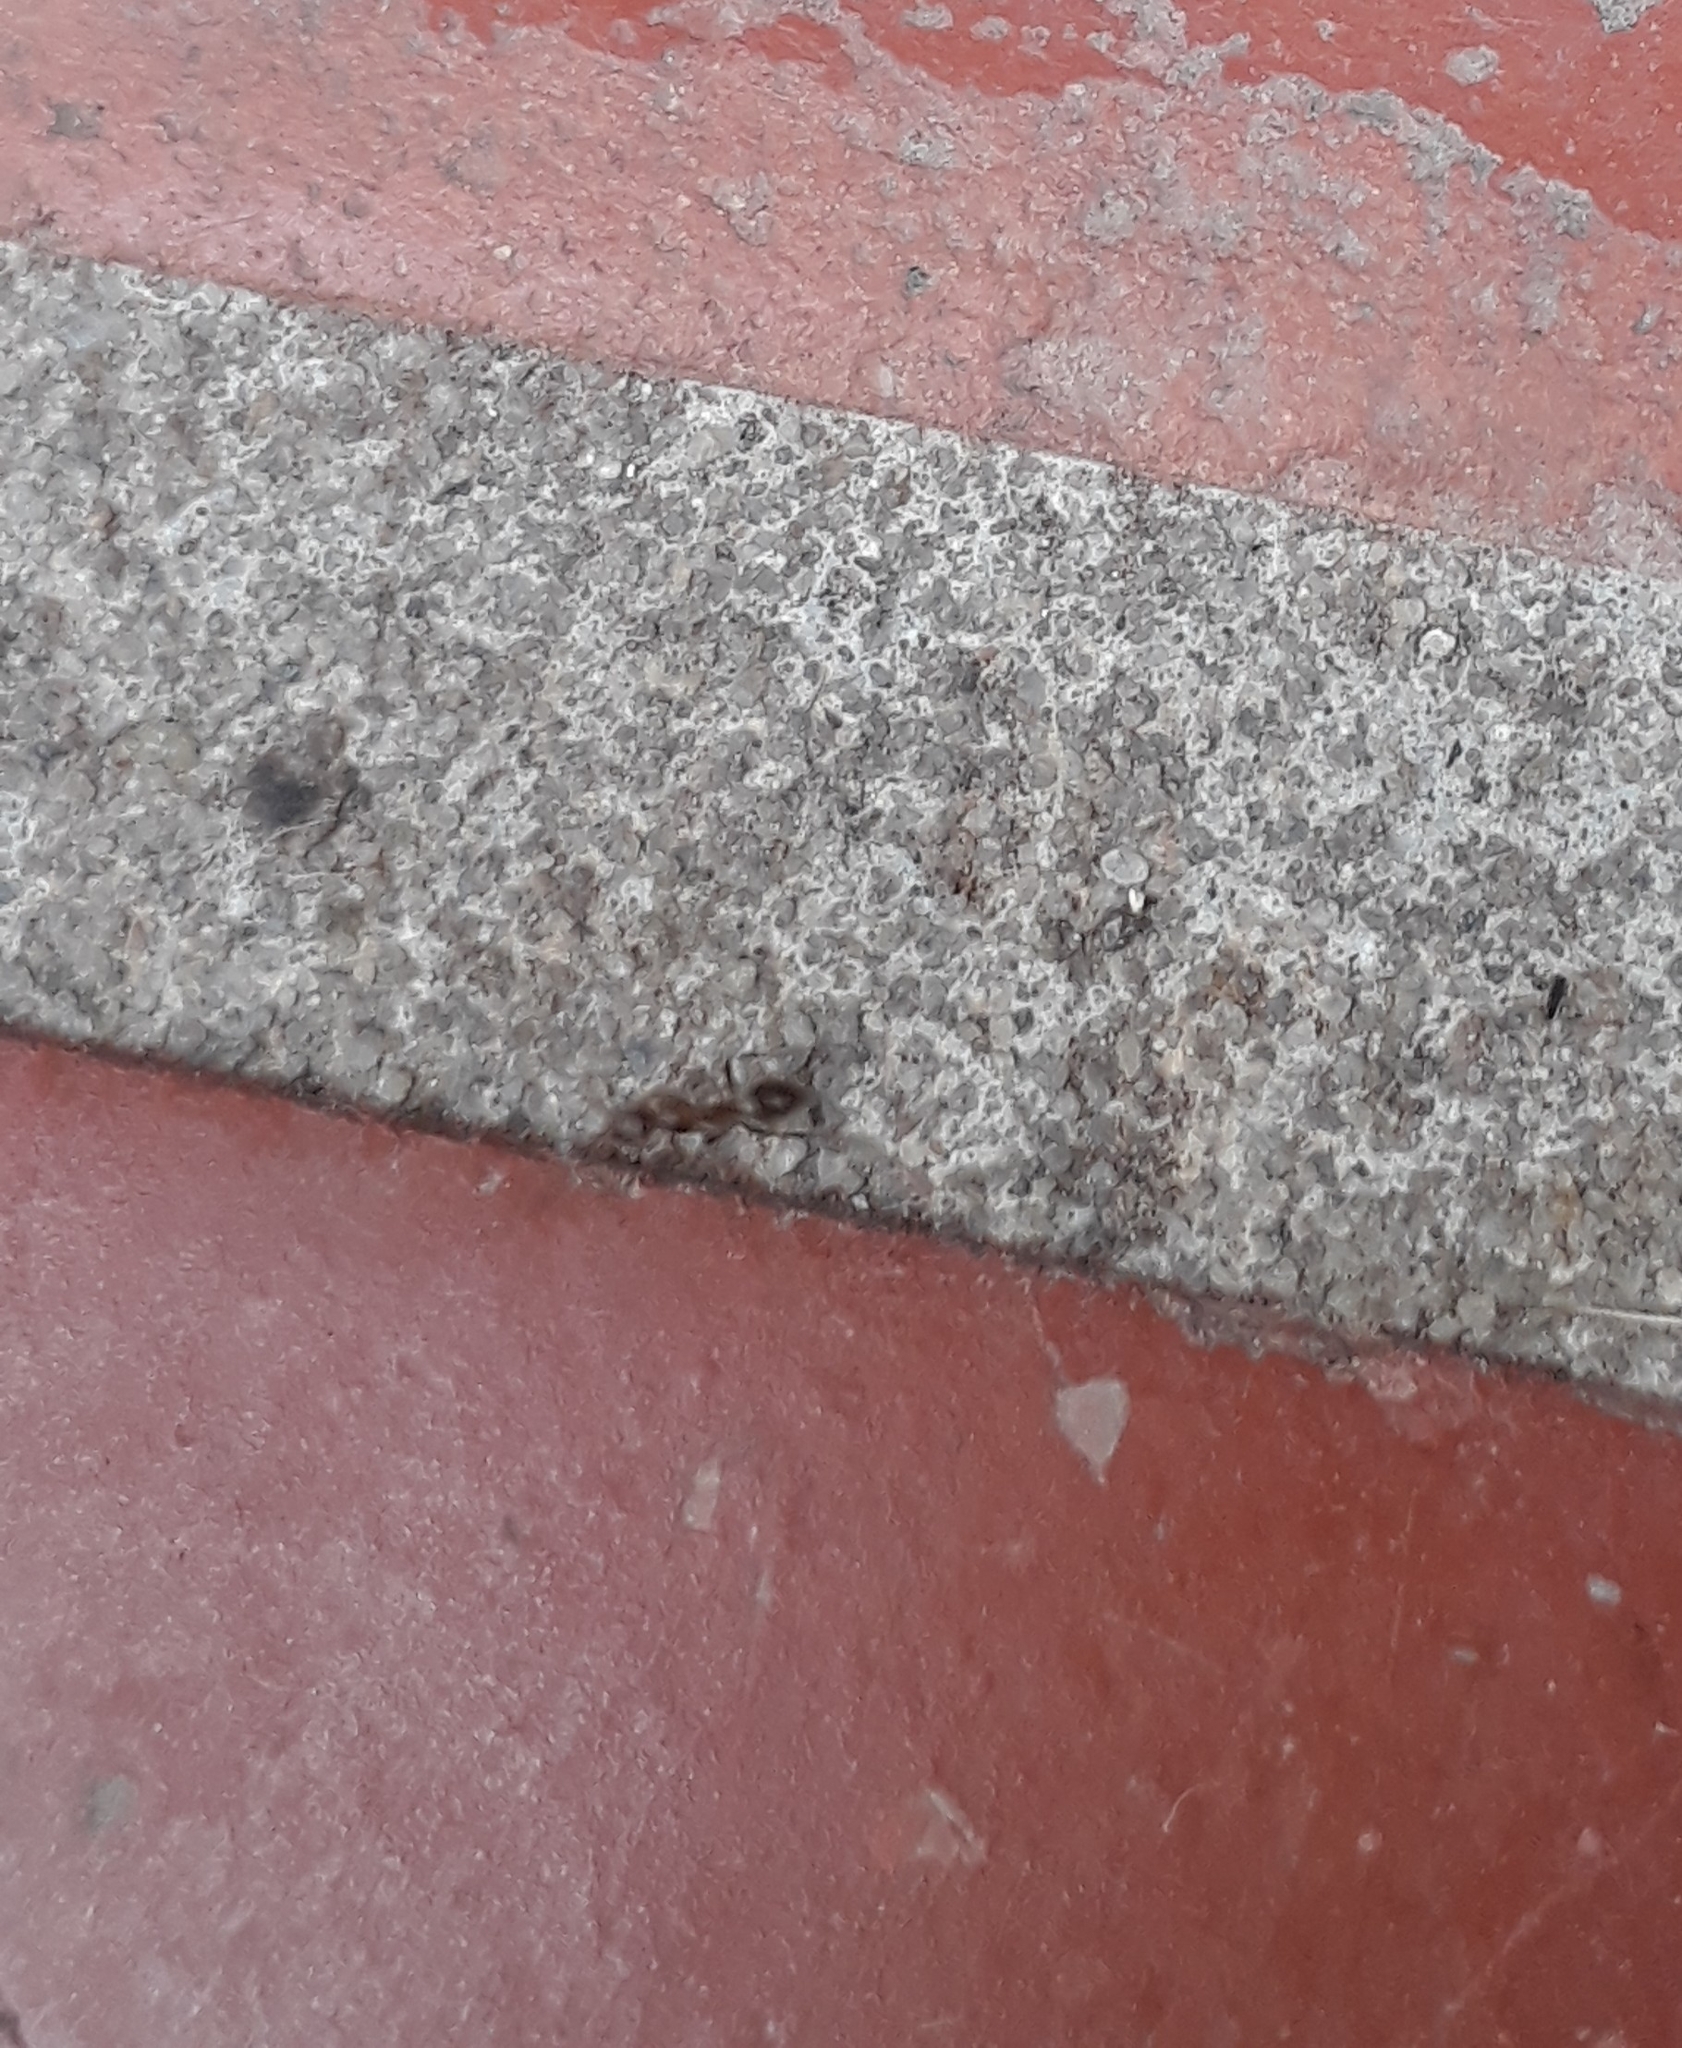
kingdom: Animalia
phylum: Arthropoda
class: Insecta
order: Hymenoptera
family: Formicidae
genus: Linepithema
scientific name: Linepithema humile
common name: Argentine ant
